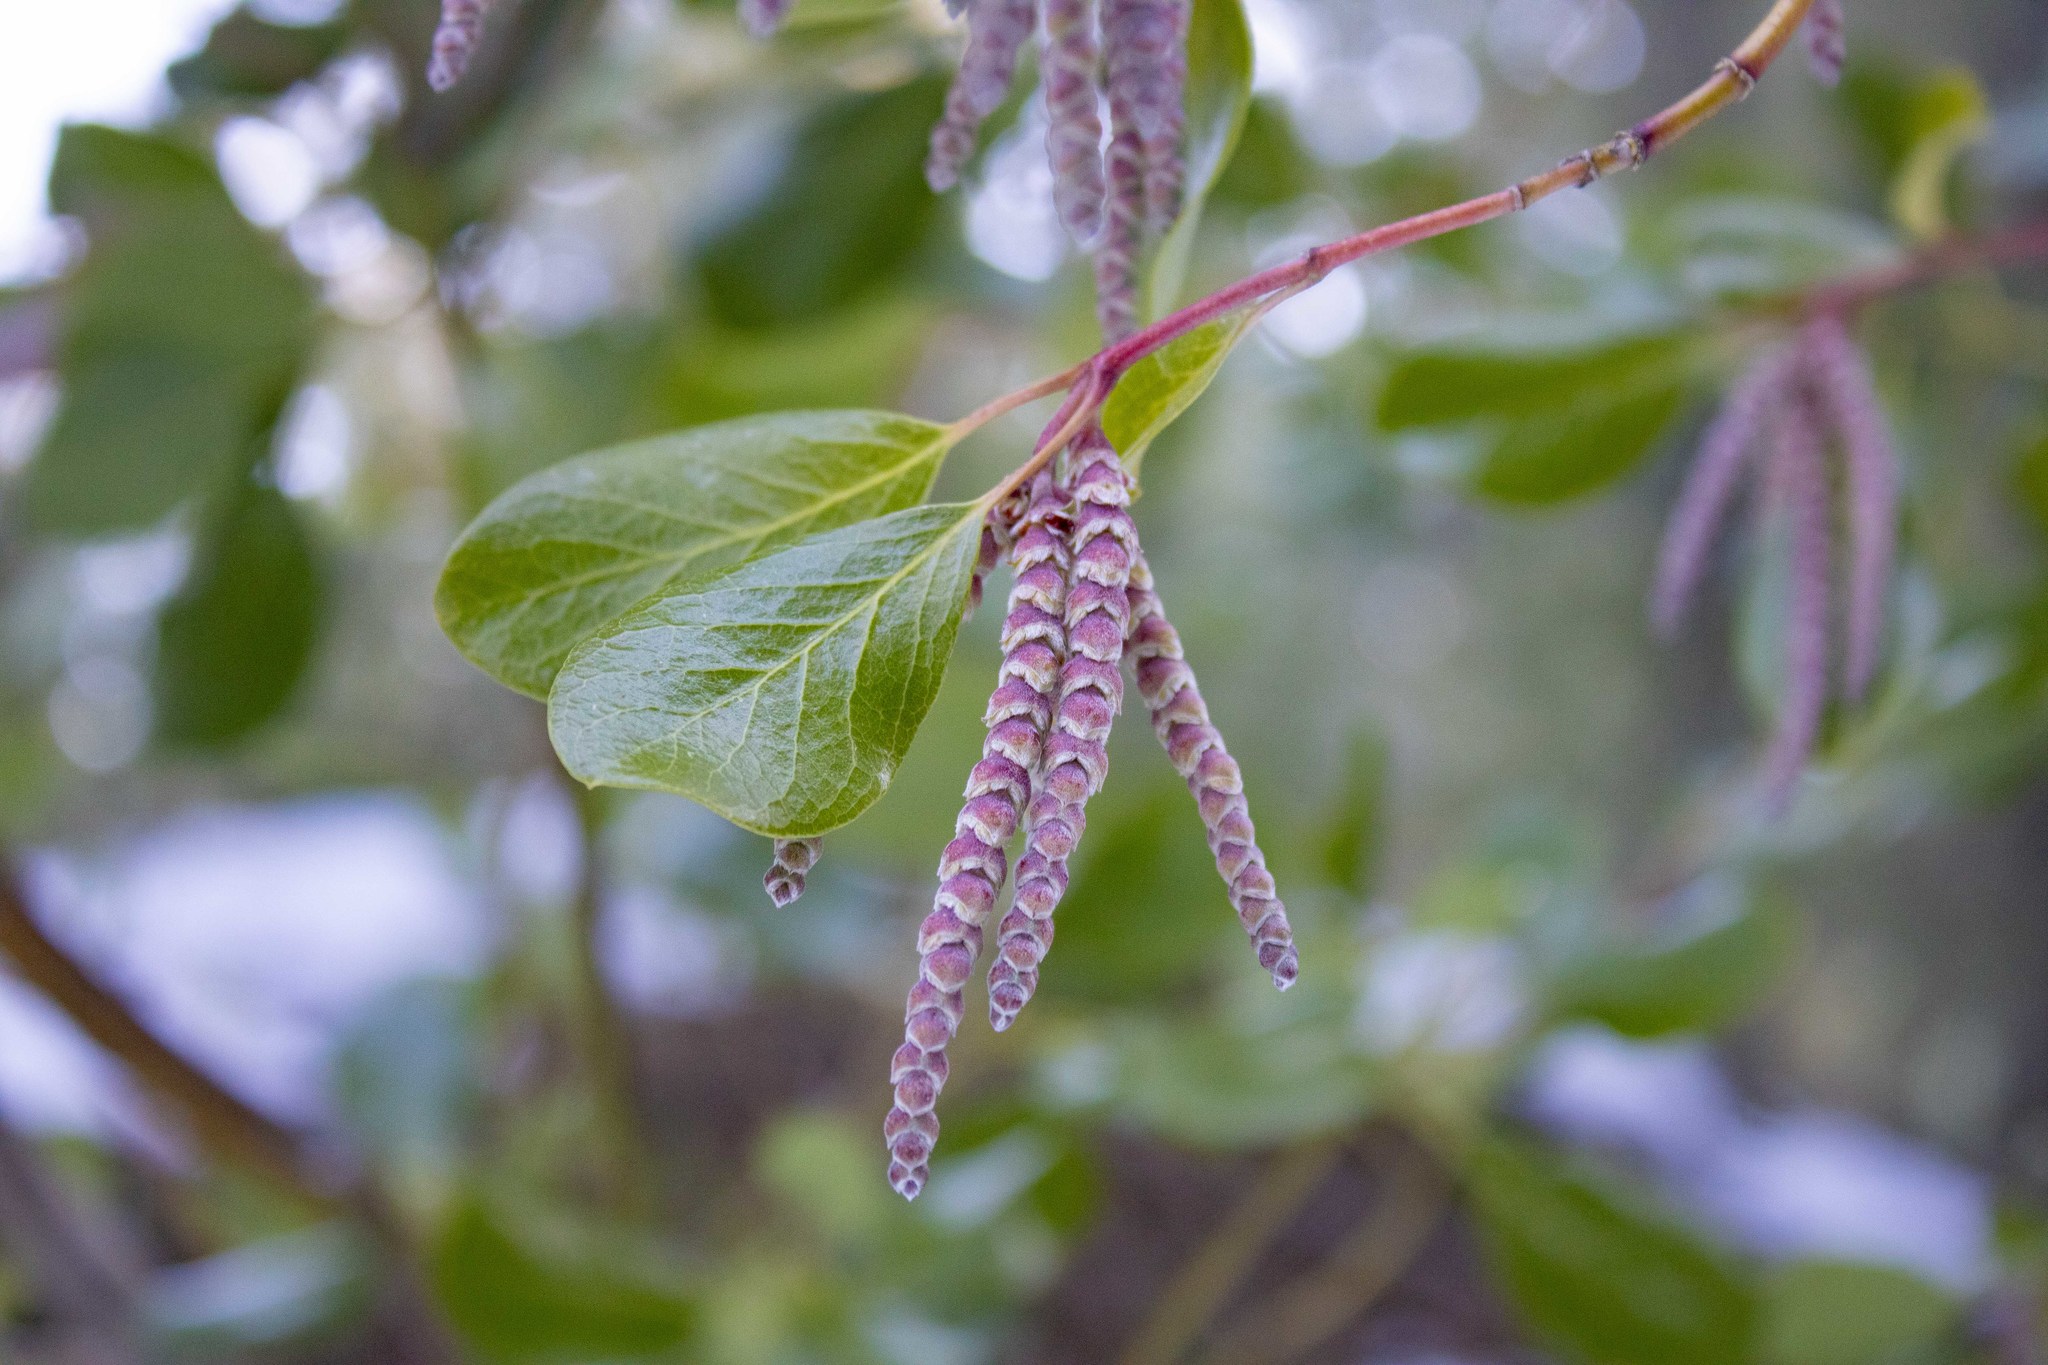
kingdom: Plantae
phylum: Tracheophyta
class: Magnoliopsida
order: Garryales
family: Garryaceae
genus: Garrya
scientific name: Garrya fremontii
